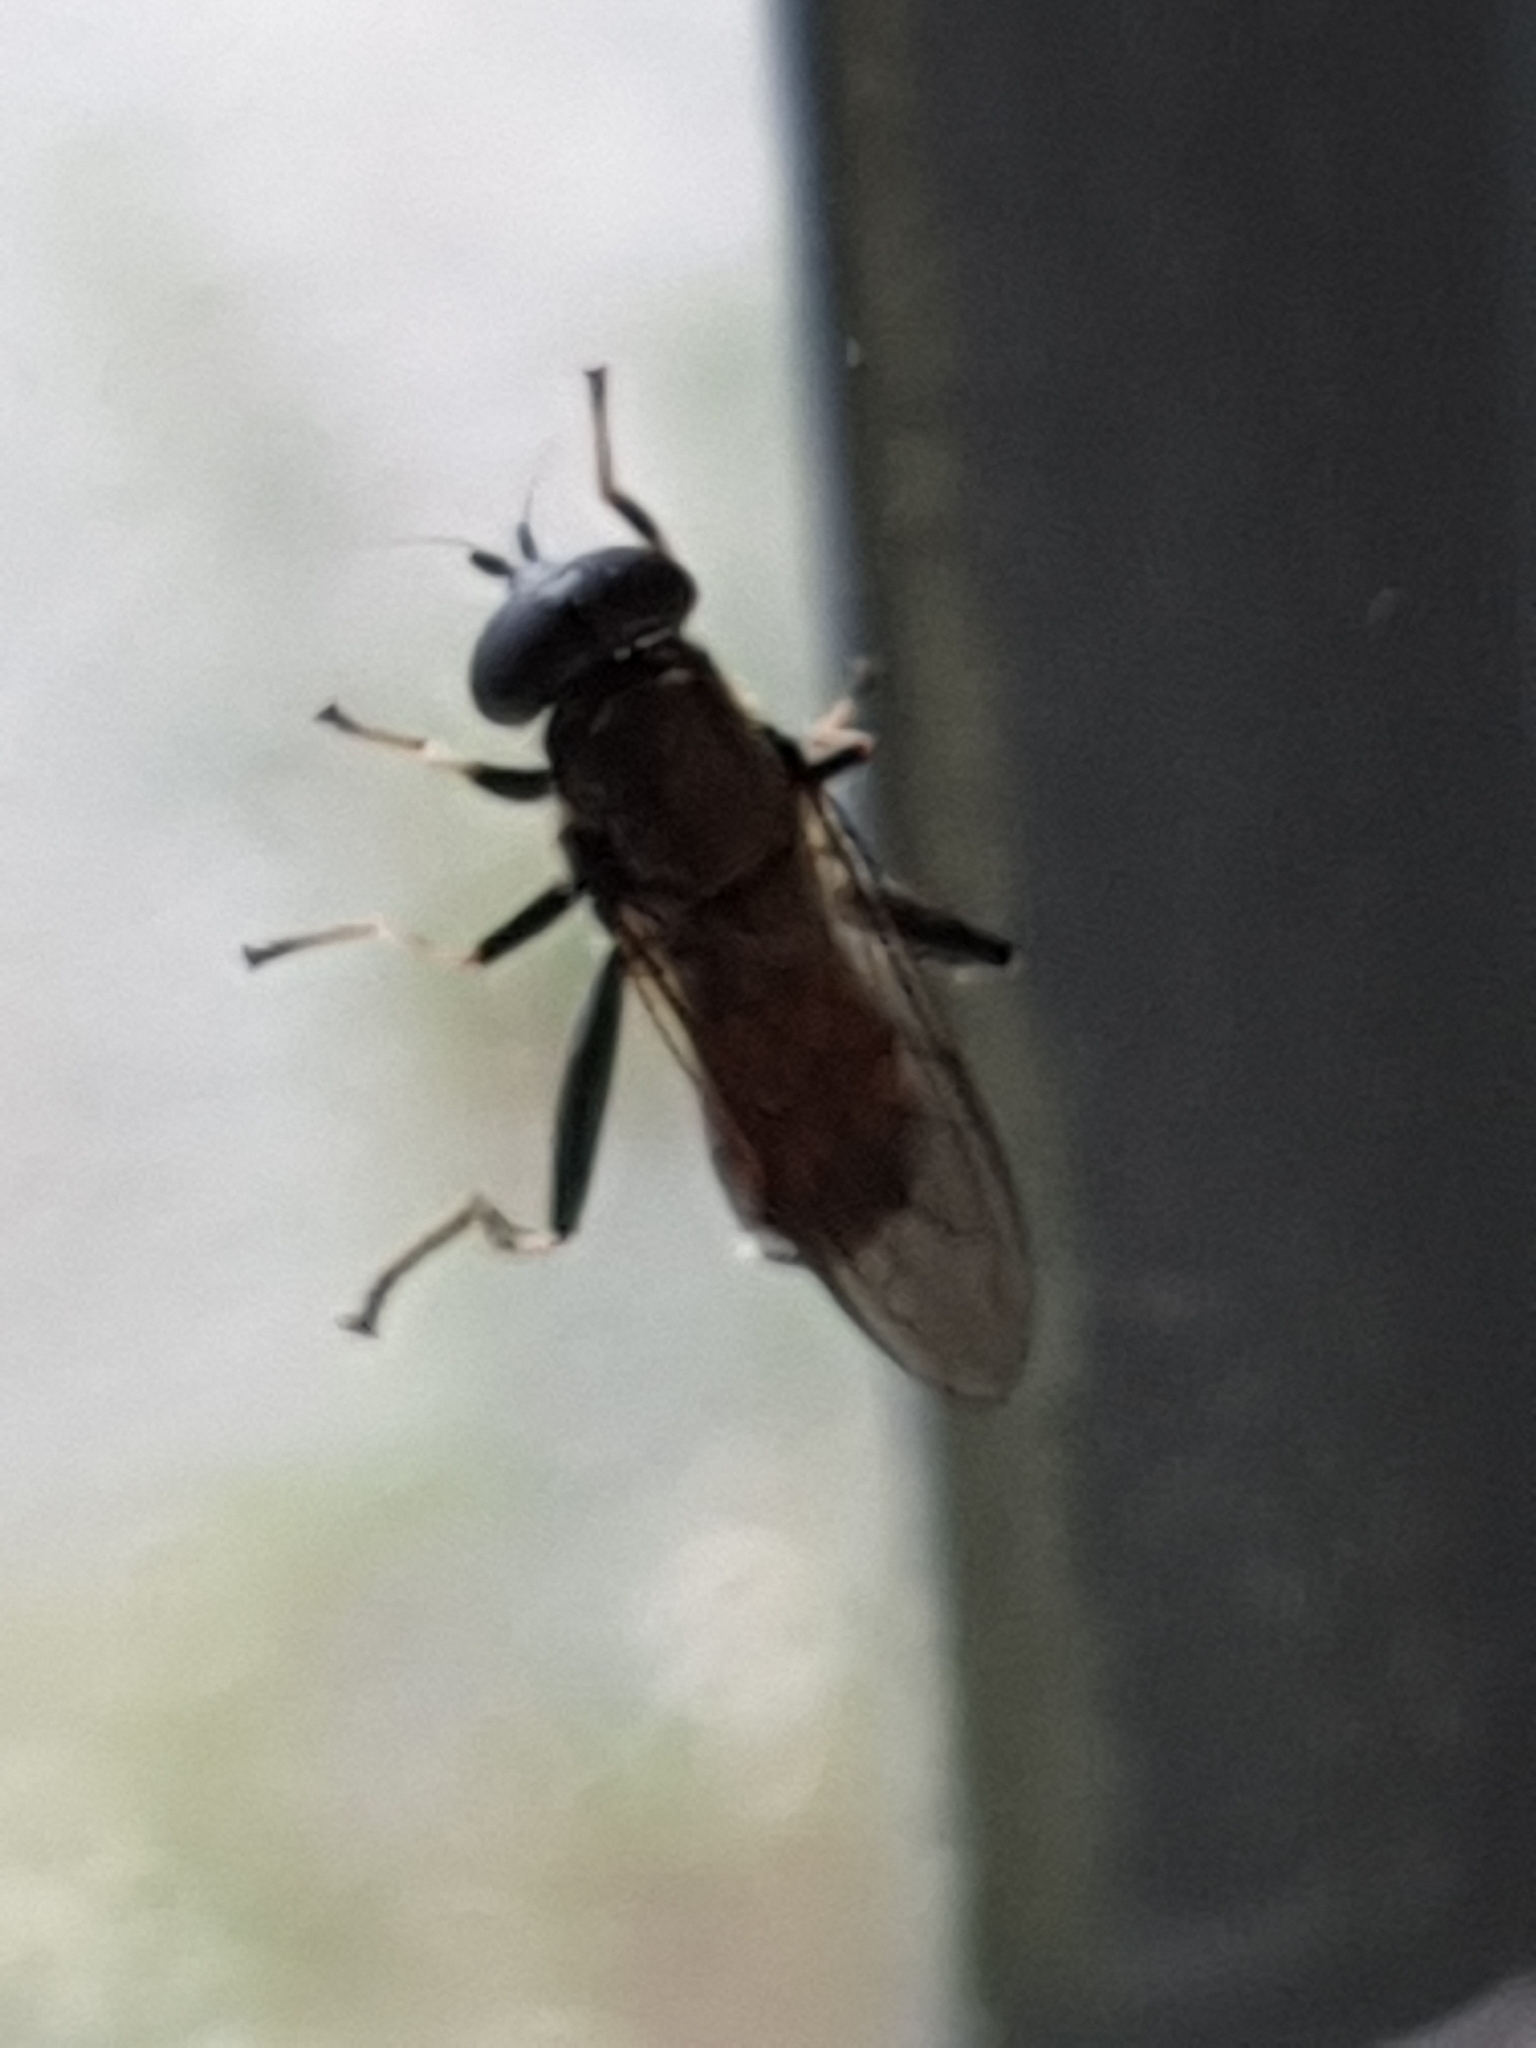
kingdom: Animalia
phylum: Arthropoda
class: Insecta
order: Diptera
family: Syrphidae
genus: Xylota
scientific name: Xylota segnis
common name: Brown-toed forest fly
